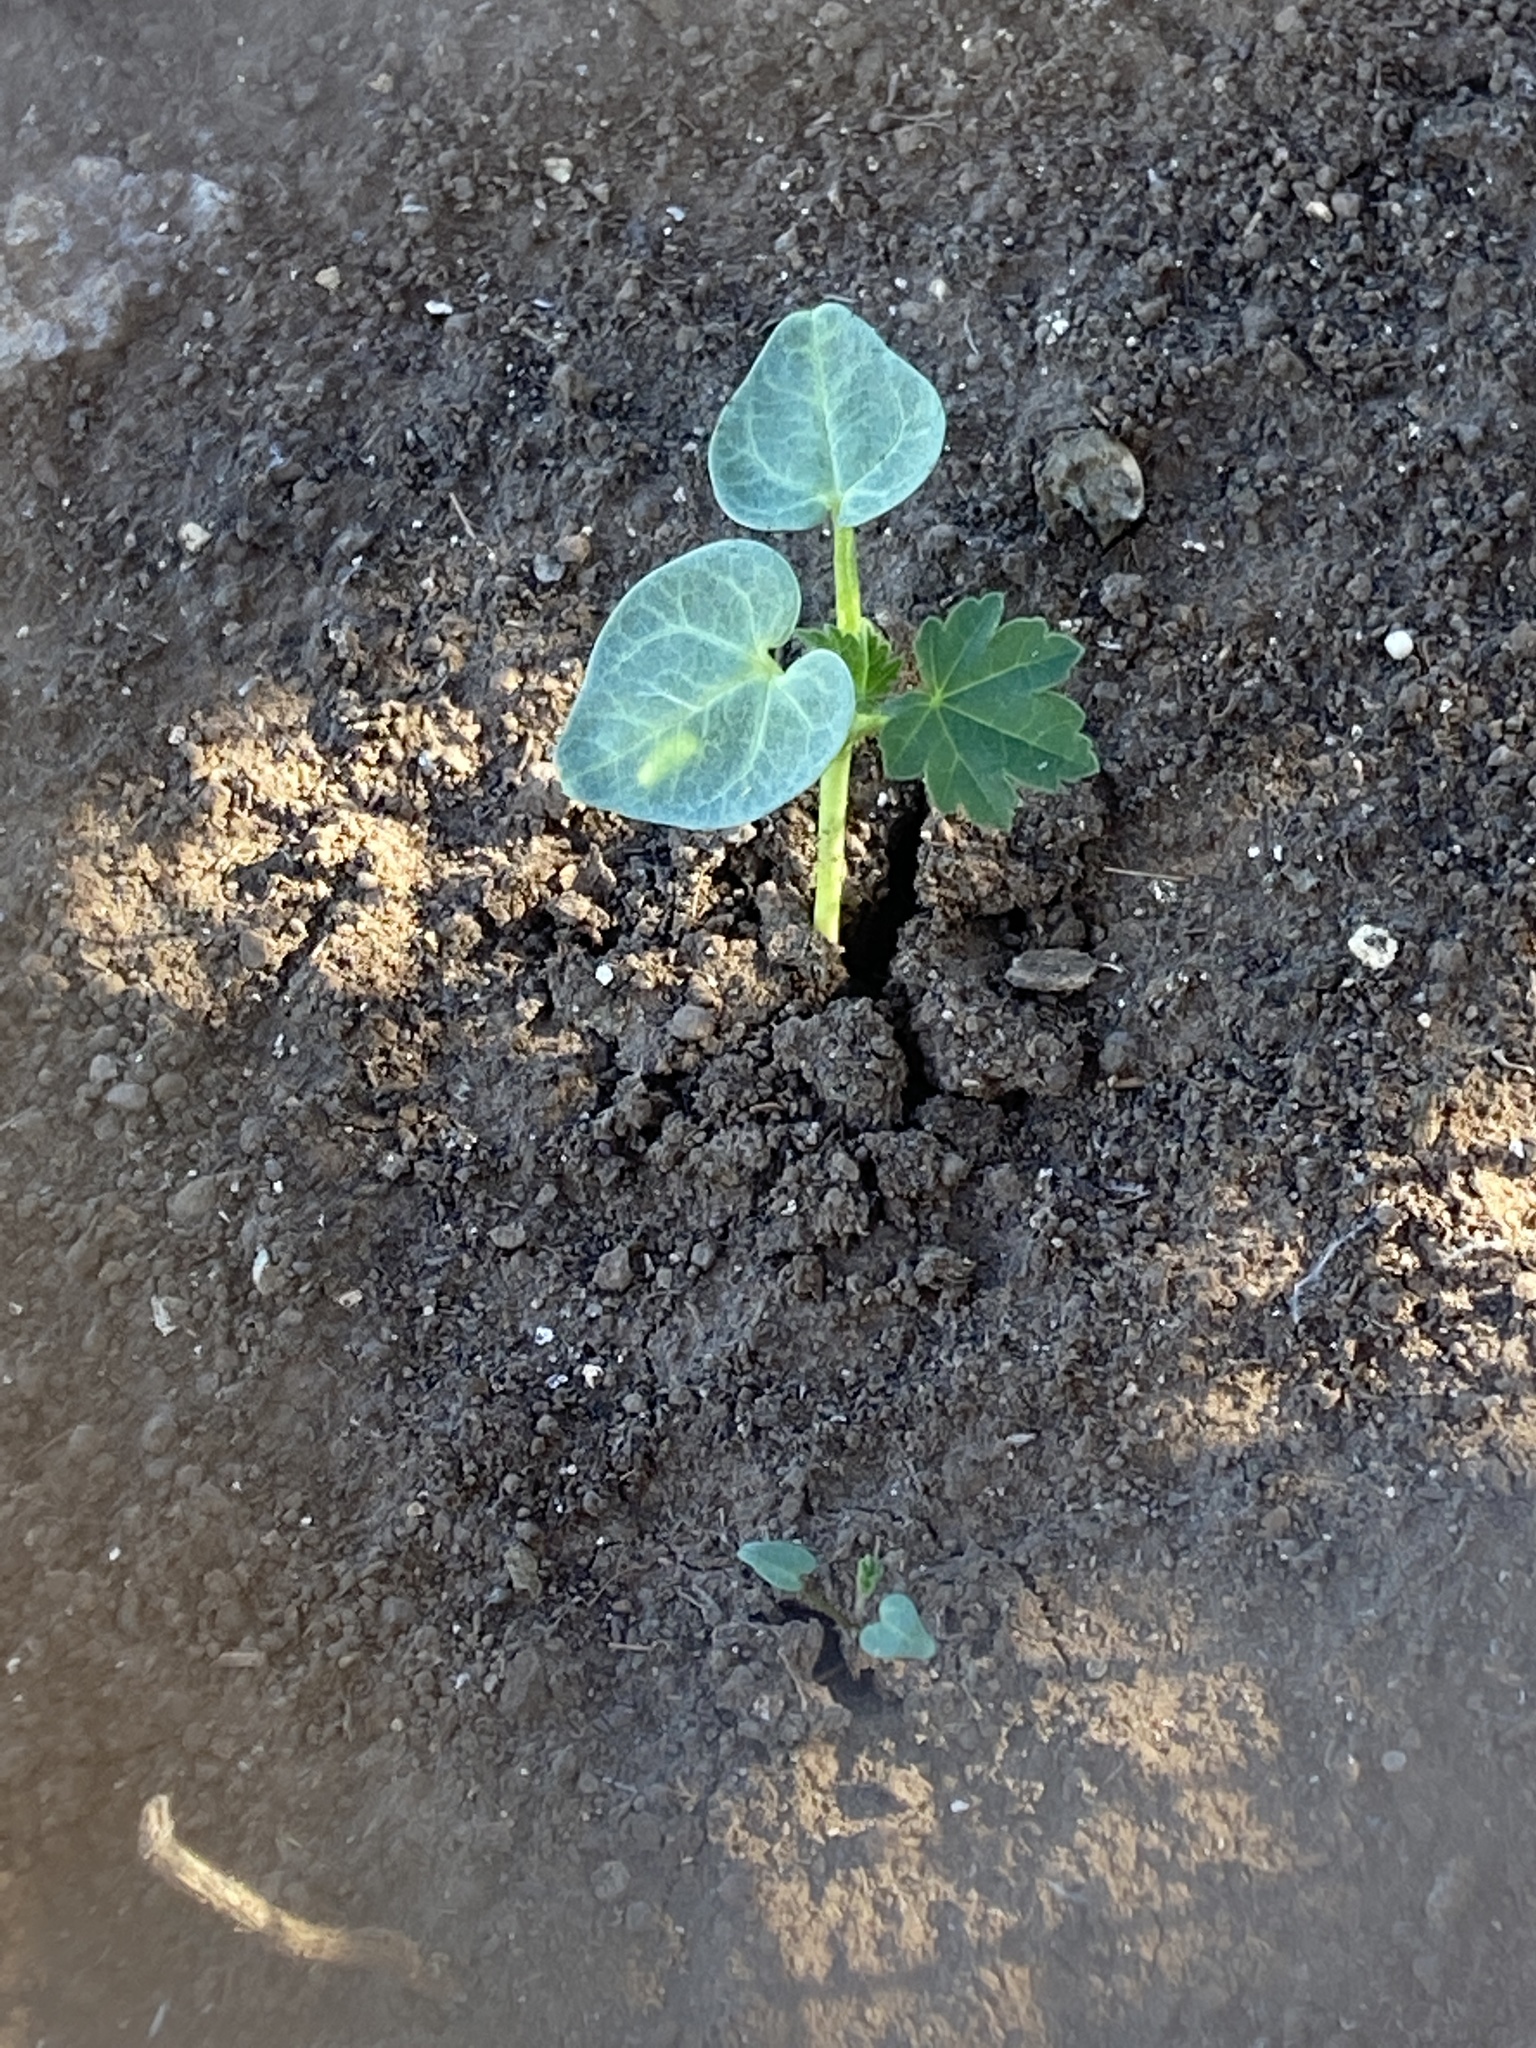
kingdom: Plantae
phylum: Tracheophyta
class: Magnoliopsida
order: Malvales
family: Malvaceae
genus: Malva
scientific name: Malva assurgentiflora
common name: Island mallow
